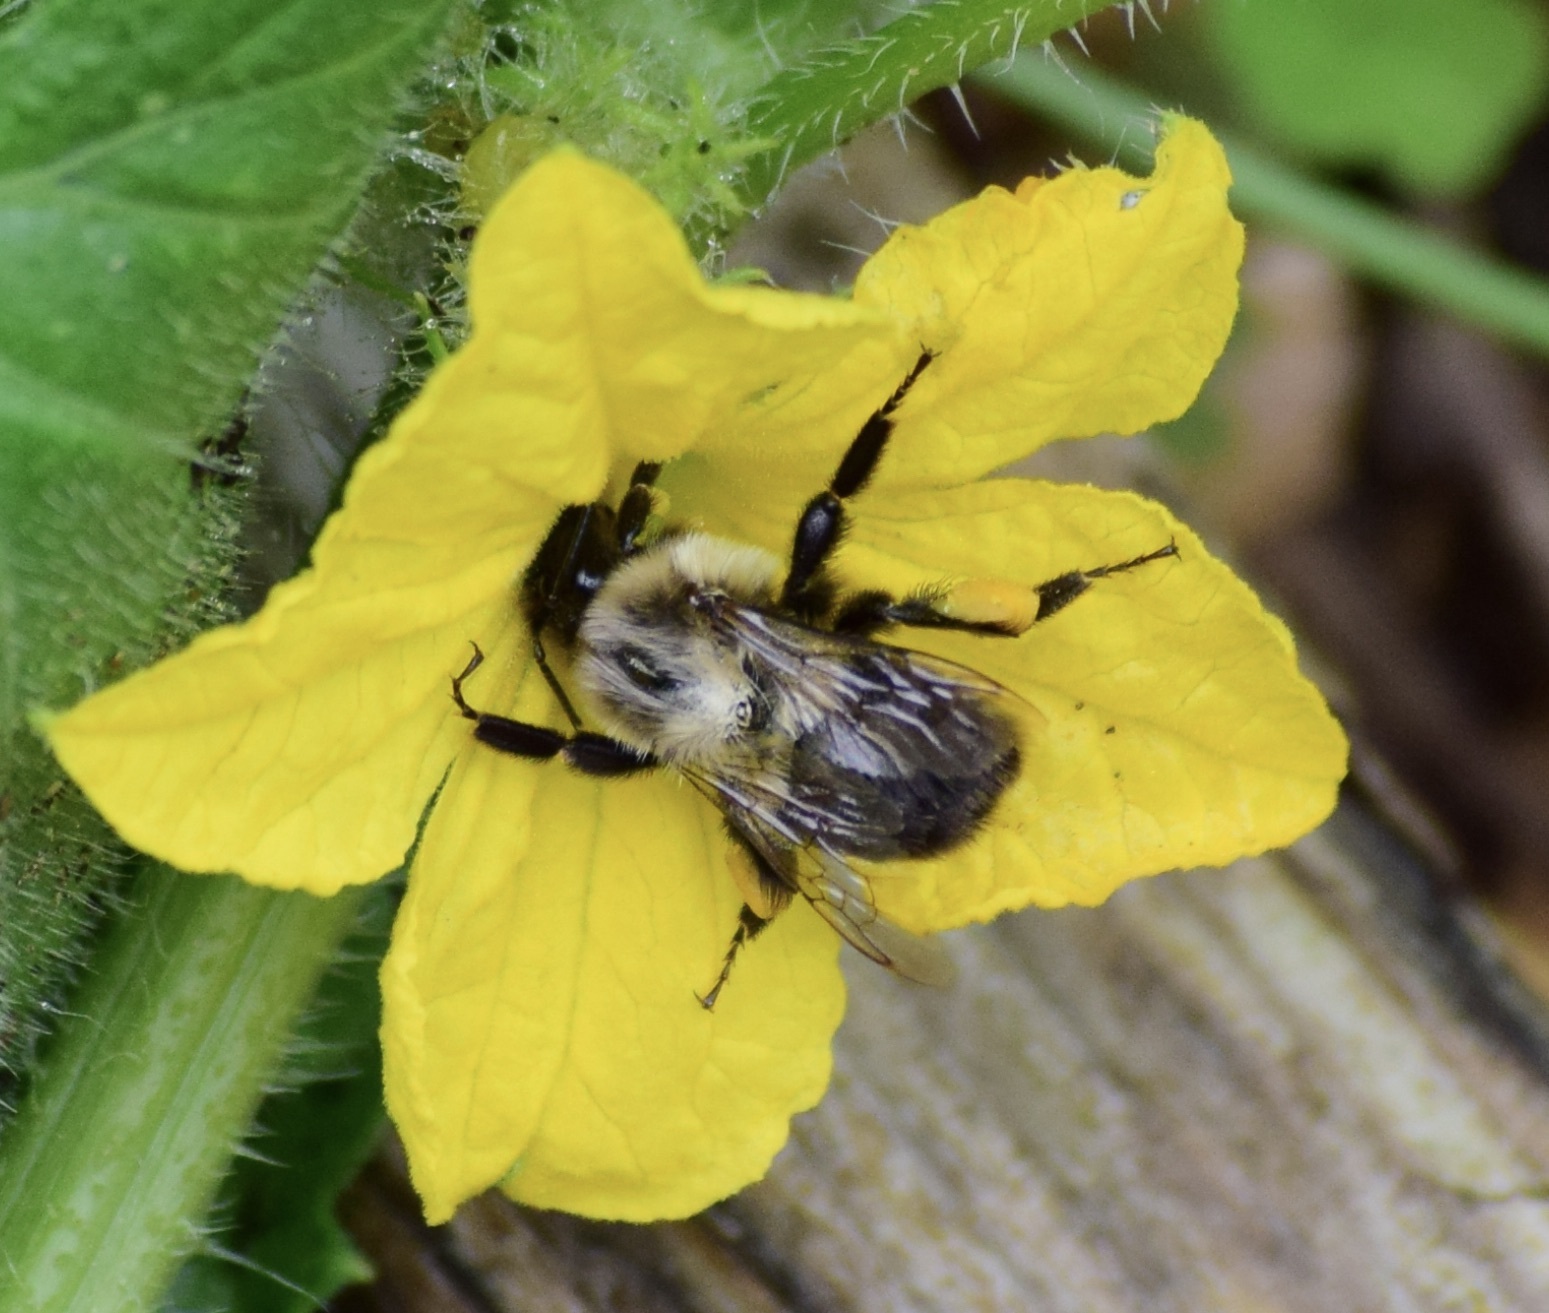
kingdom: Animalia
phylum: Arthropoda
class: Insecta
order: Hymenoptera
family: Apidae
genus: Bombus
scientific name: Bombus impatiens
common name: Common eastern bumble bee
